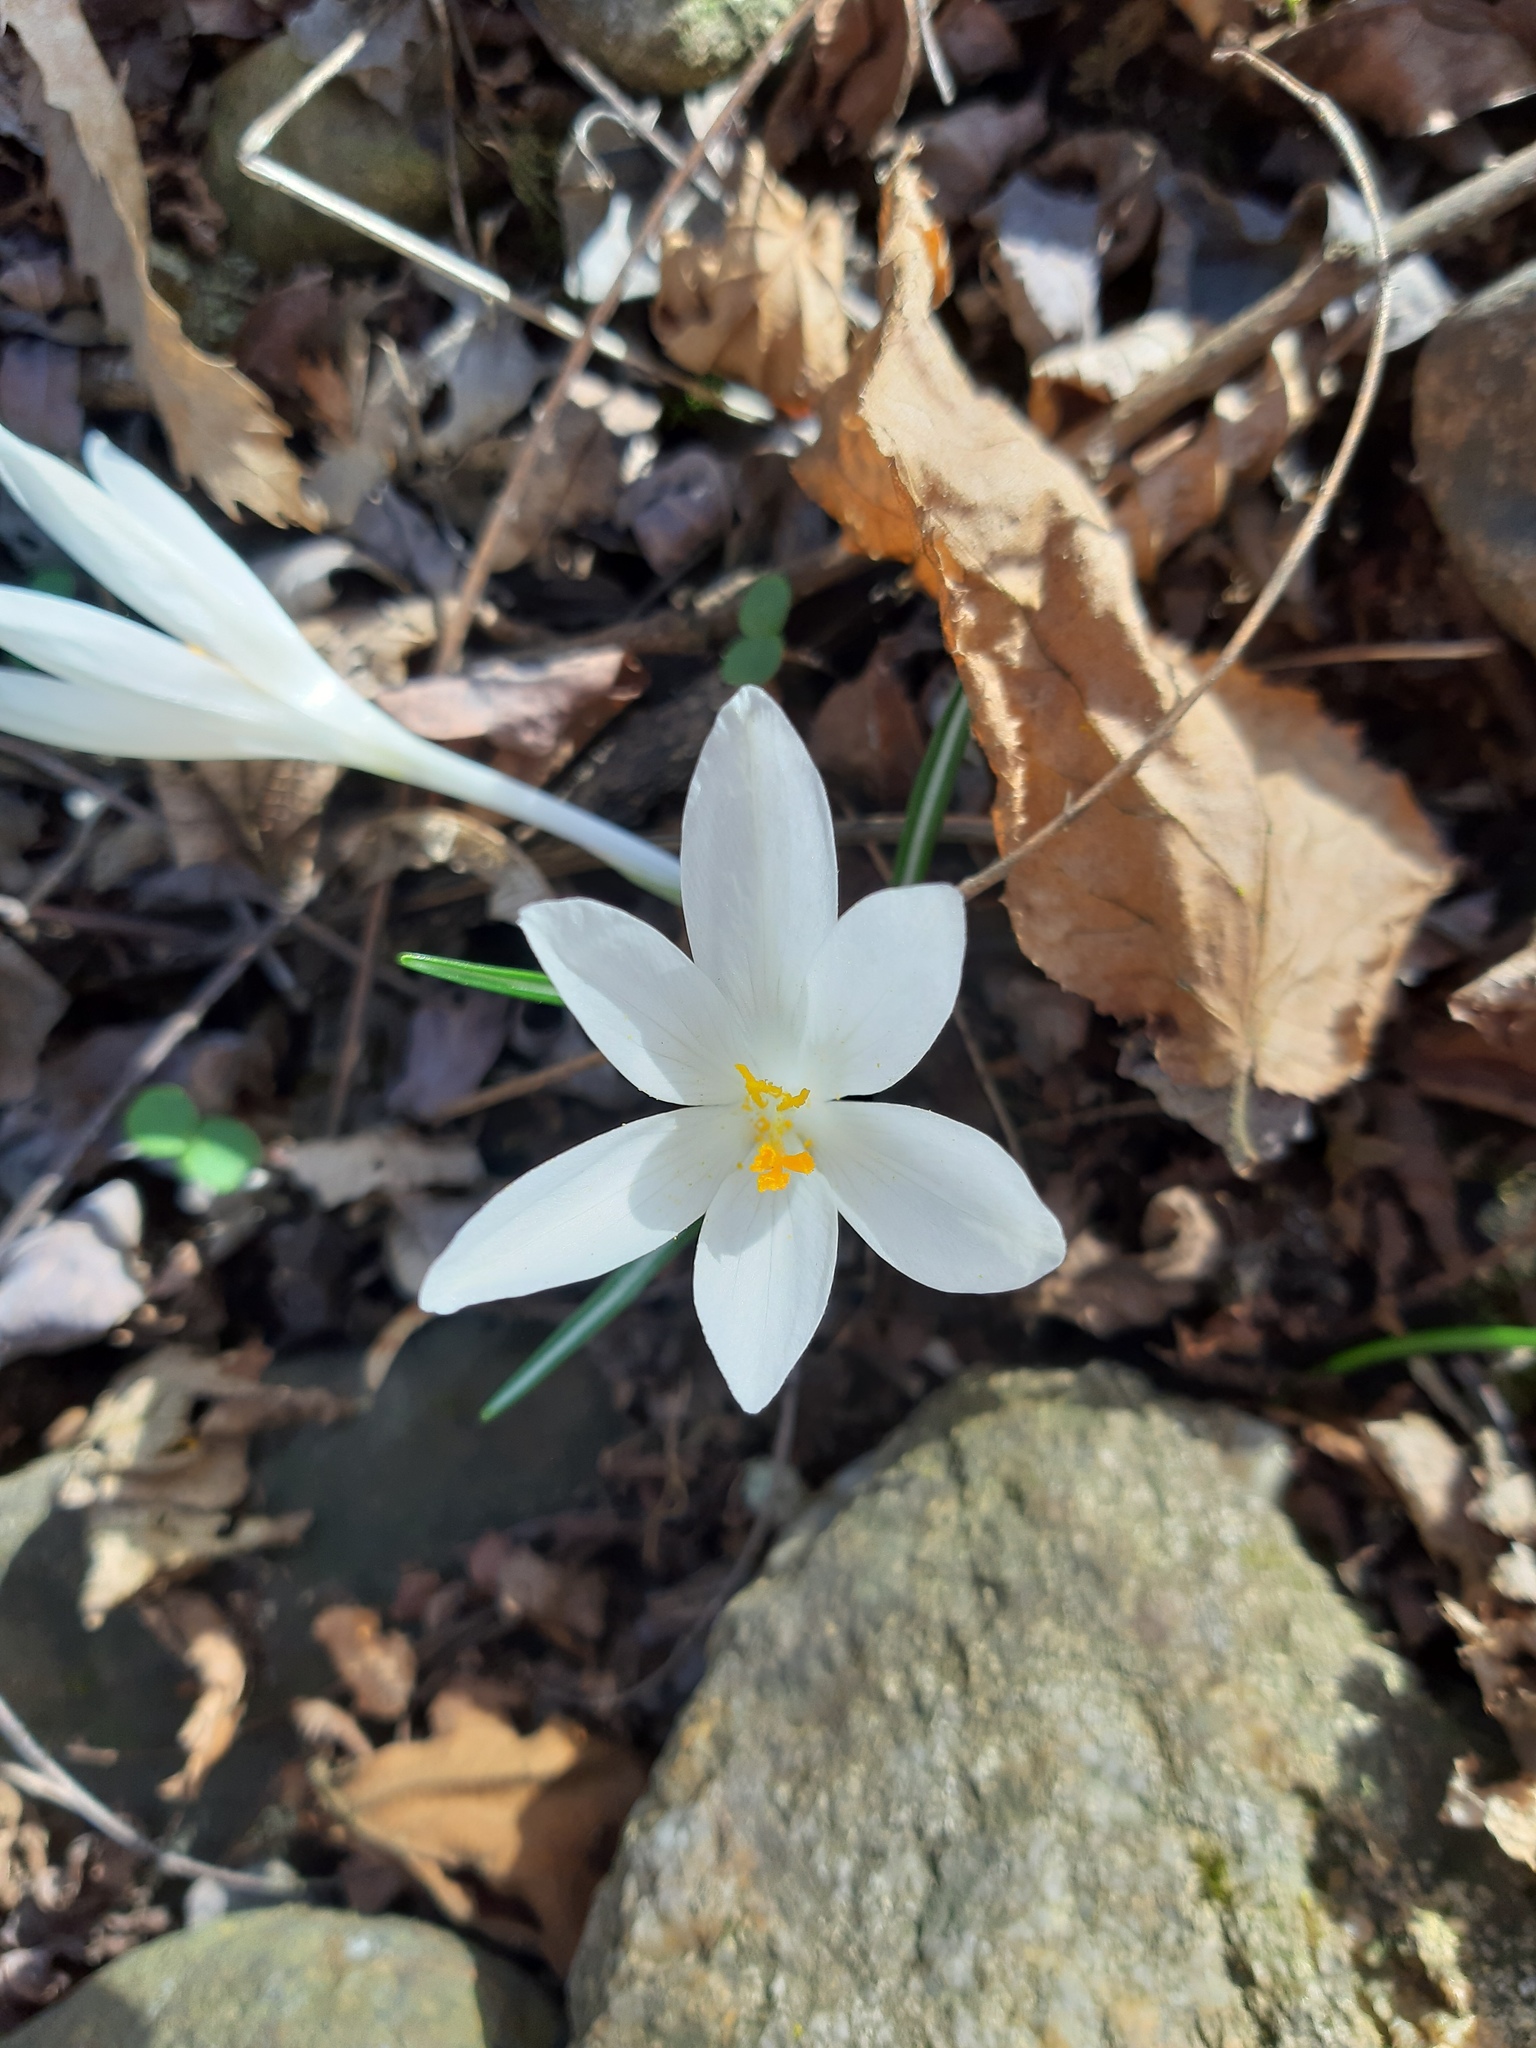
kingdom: Plantae
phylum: Tracheophyta
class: Liliopsida
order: Asparagales
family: Iridaceae
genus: Crocus
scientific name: Crocus vernus
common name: Spring crocus
